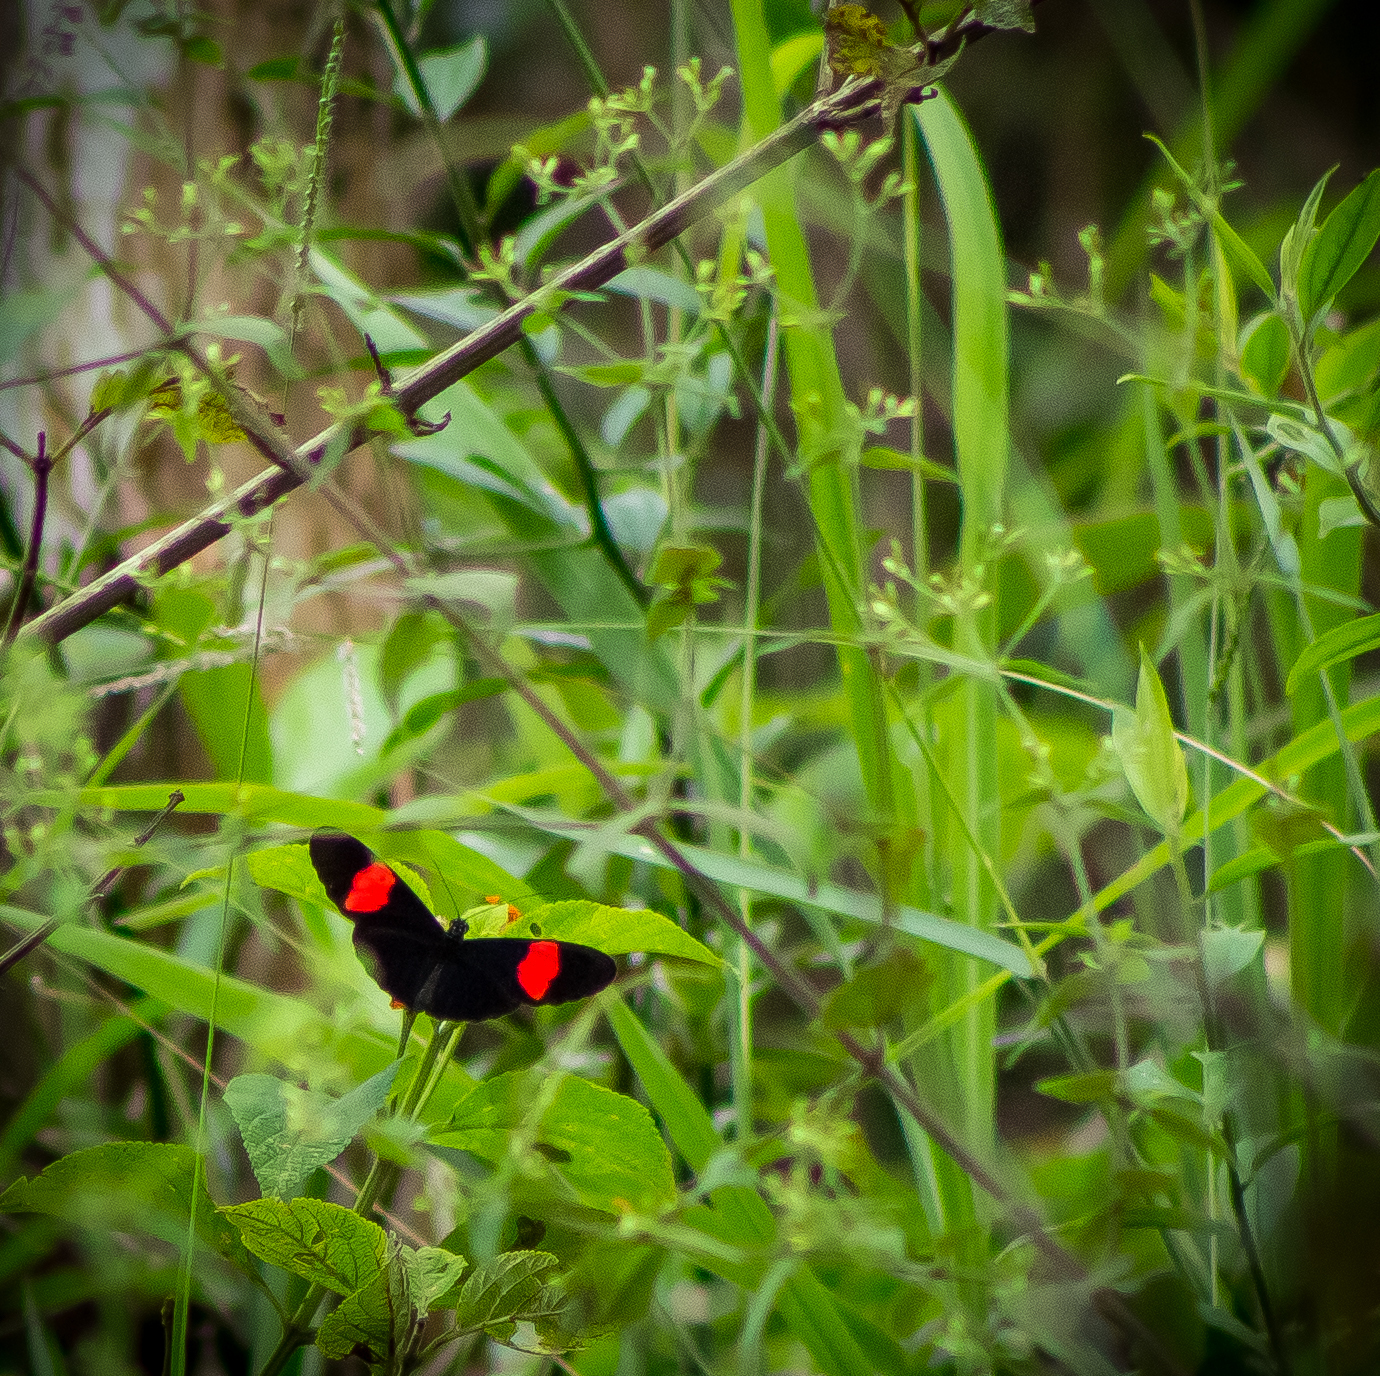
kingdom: Animalia
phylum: Arthropoda
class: Insecta
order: Lepidoptera
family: Nymphalidae
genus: Heliconius
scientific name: Heliconius erato
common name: Common patch longwing
